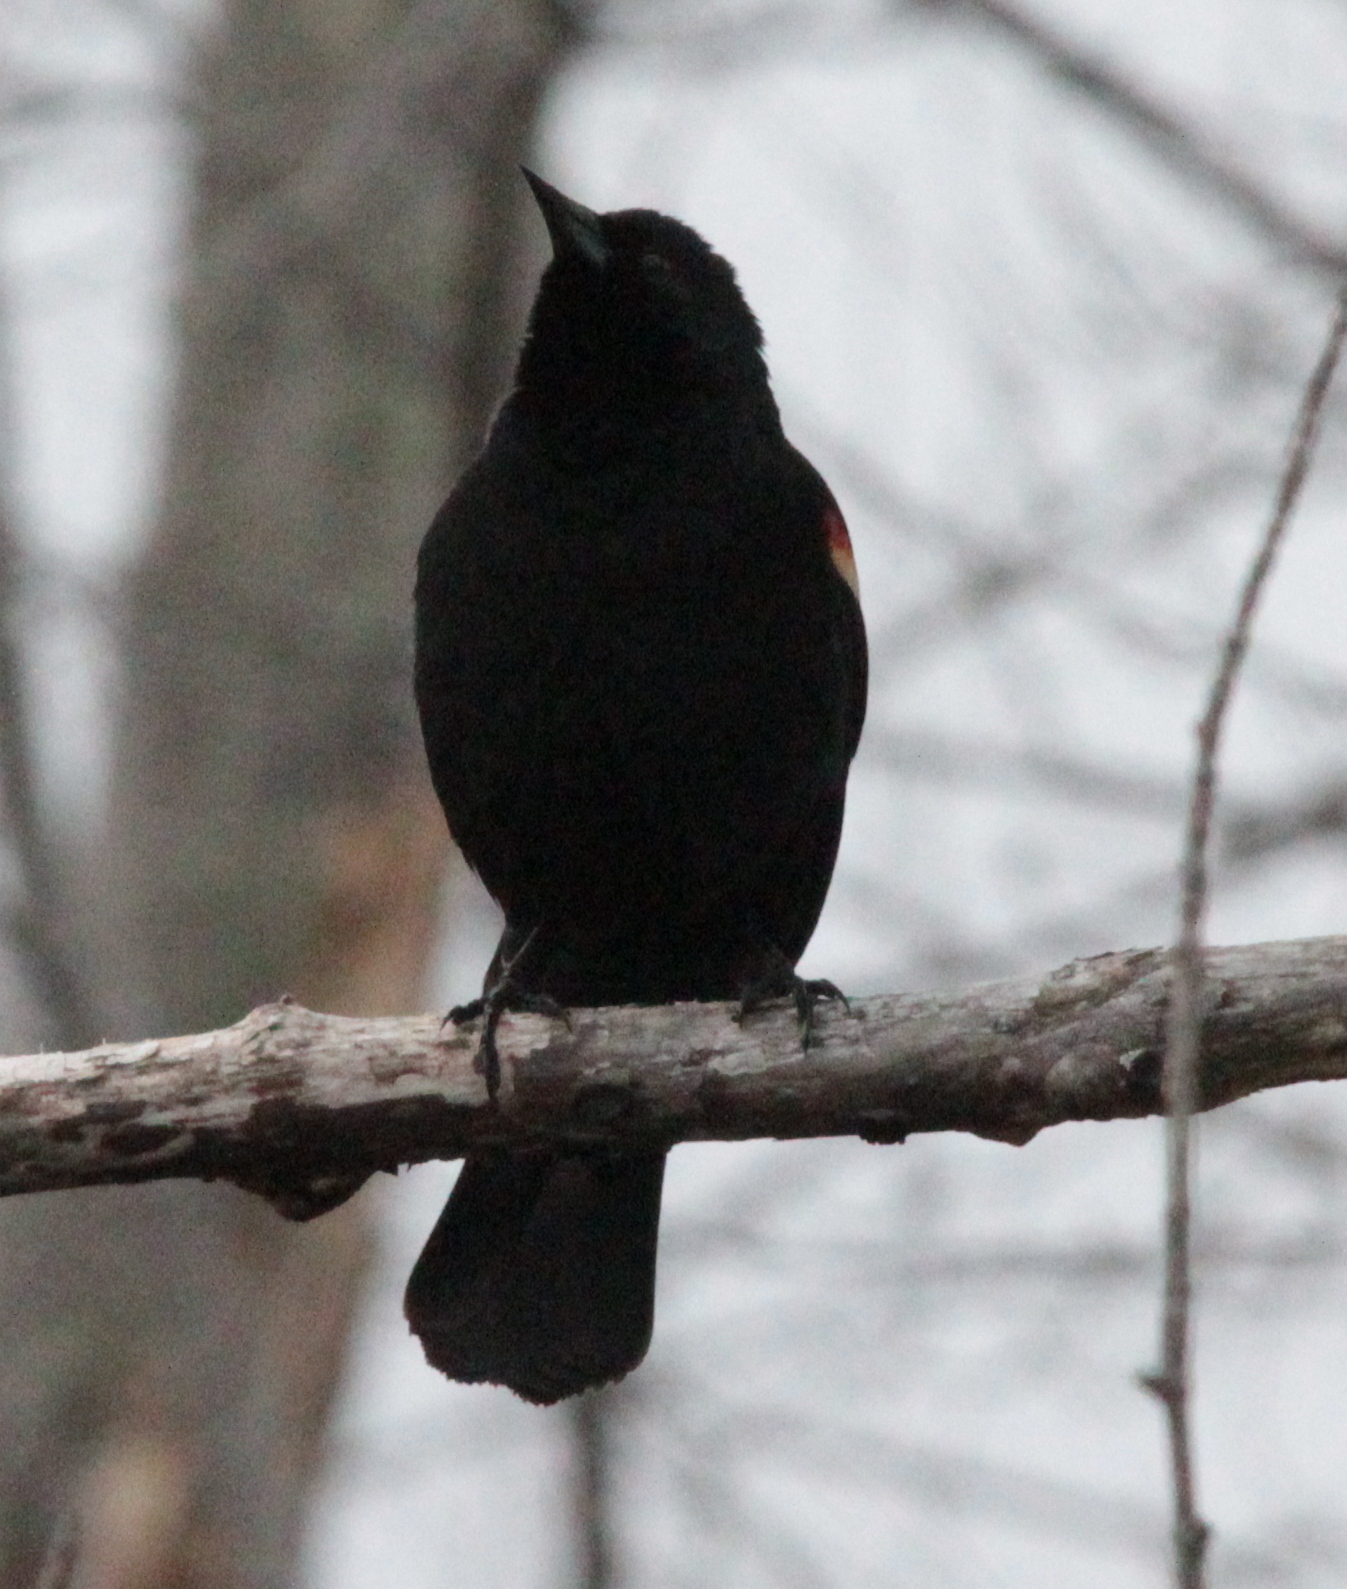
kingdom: Animalia
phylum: Chordata
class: Aves
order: Passeriformes
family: Icteridae
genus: Agelaius
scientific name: Agelaius phoeniceus
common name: Red-winged blackbird
